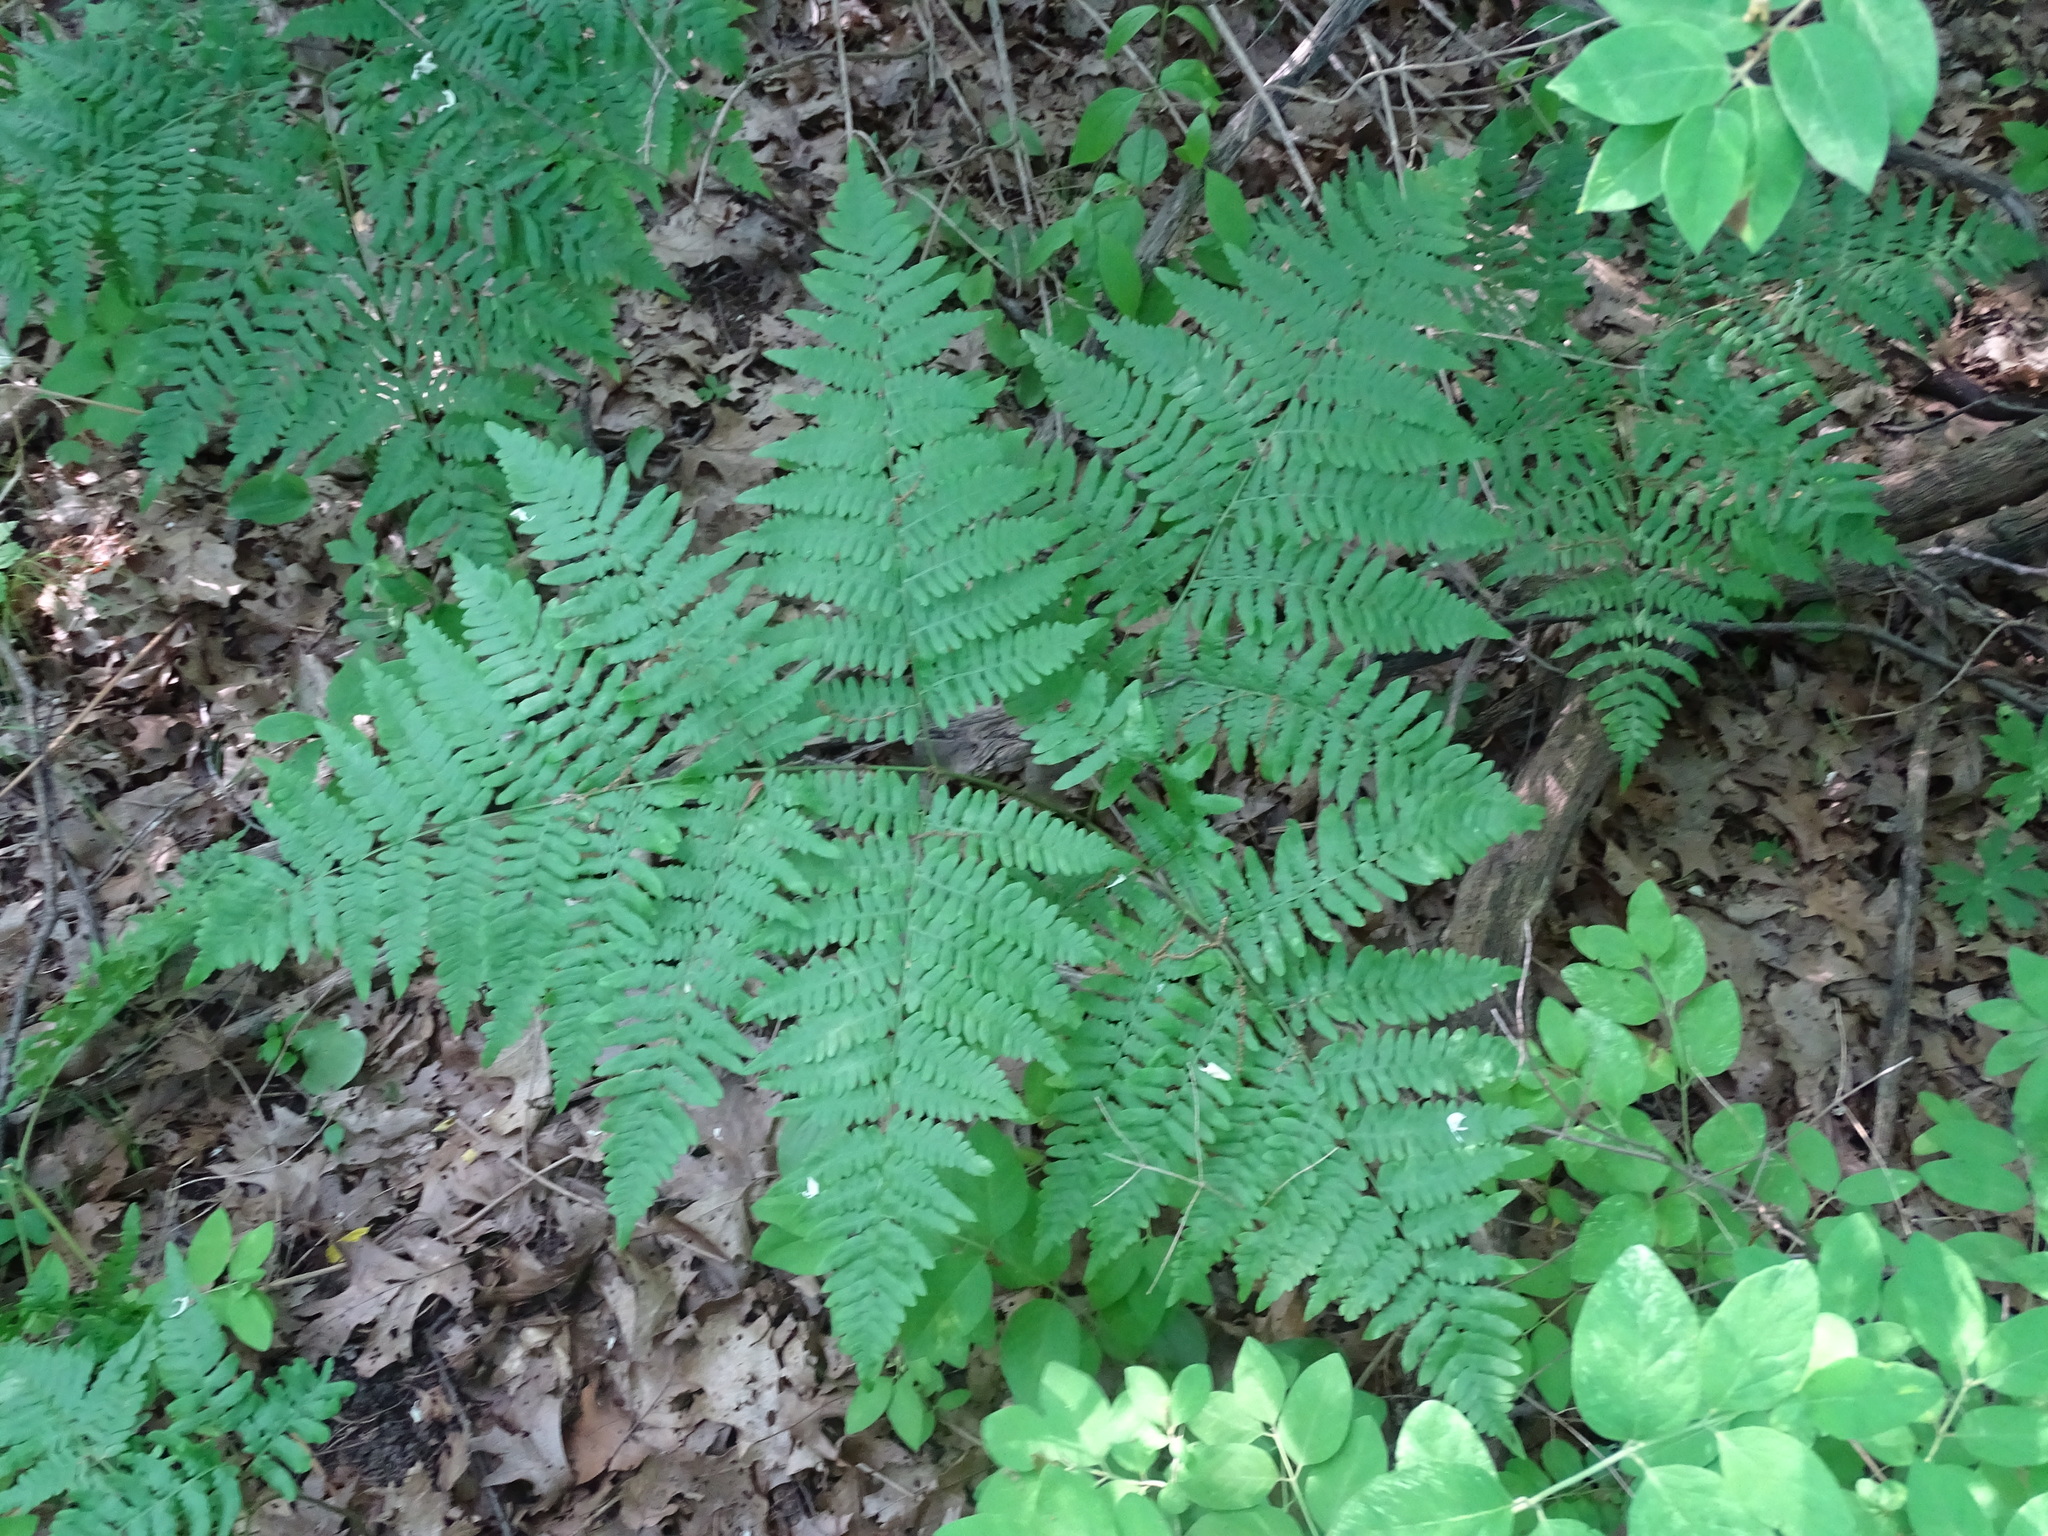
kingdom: Plantae
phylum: Tracheophyta
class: Polypodiopsida
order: Polypodiales
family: Dennstaedtiaceae
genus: Pteridium
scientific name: Pteridium aquilinum
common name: Bracken
